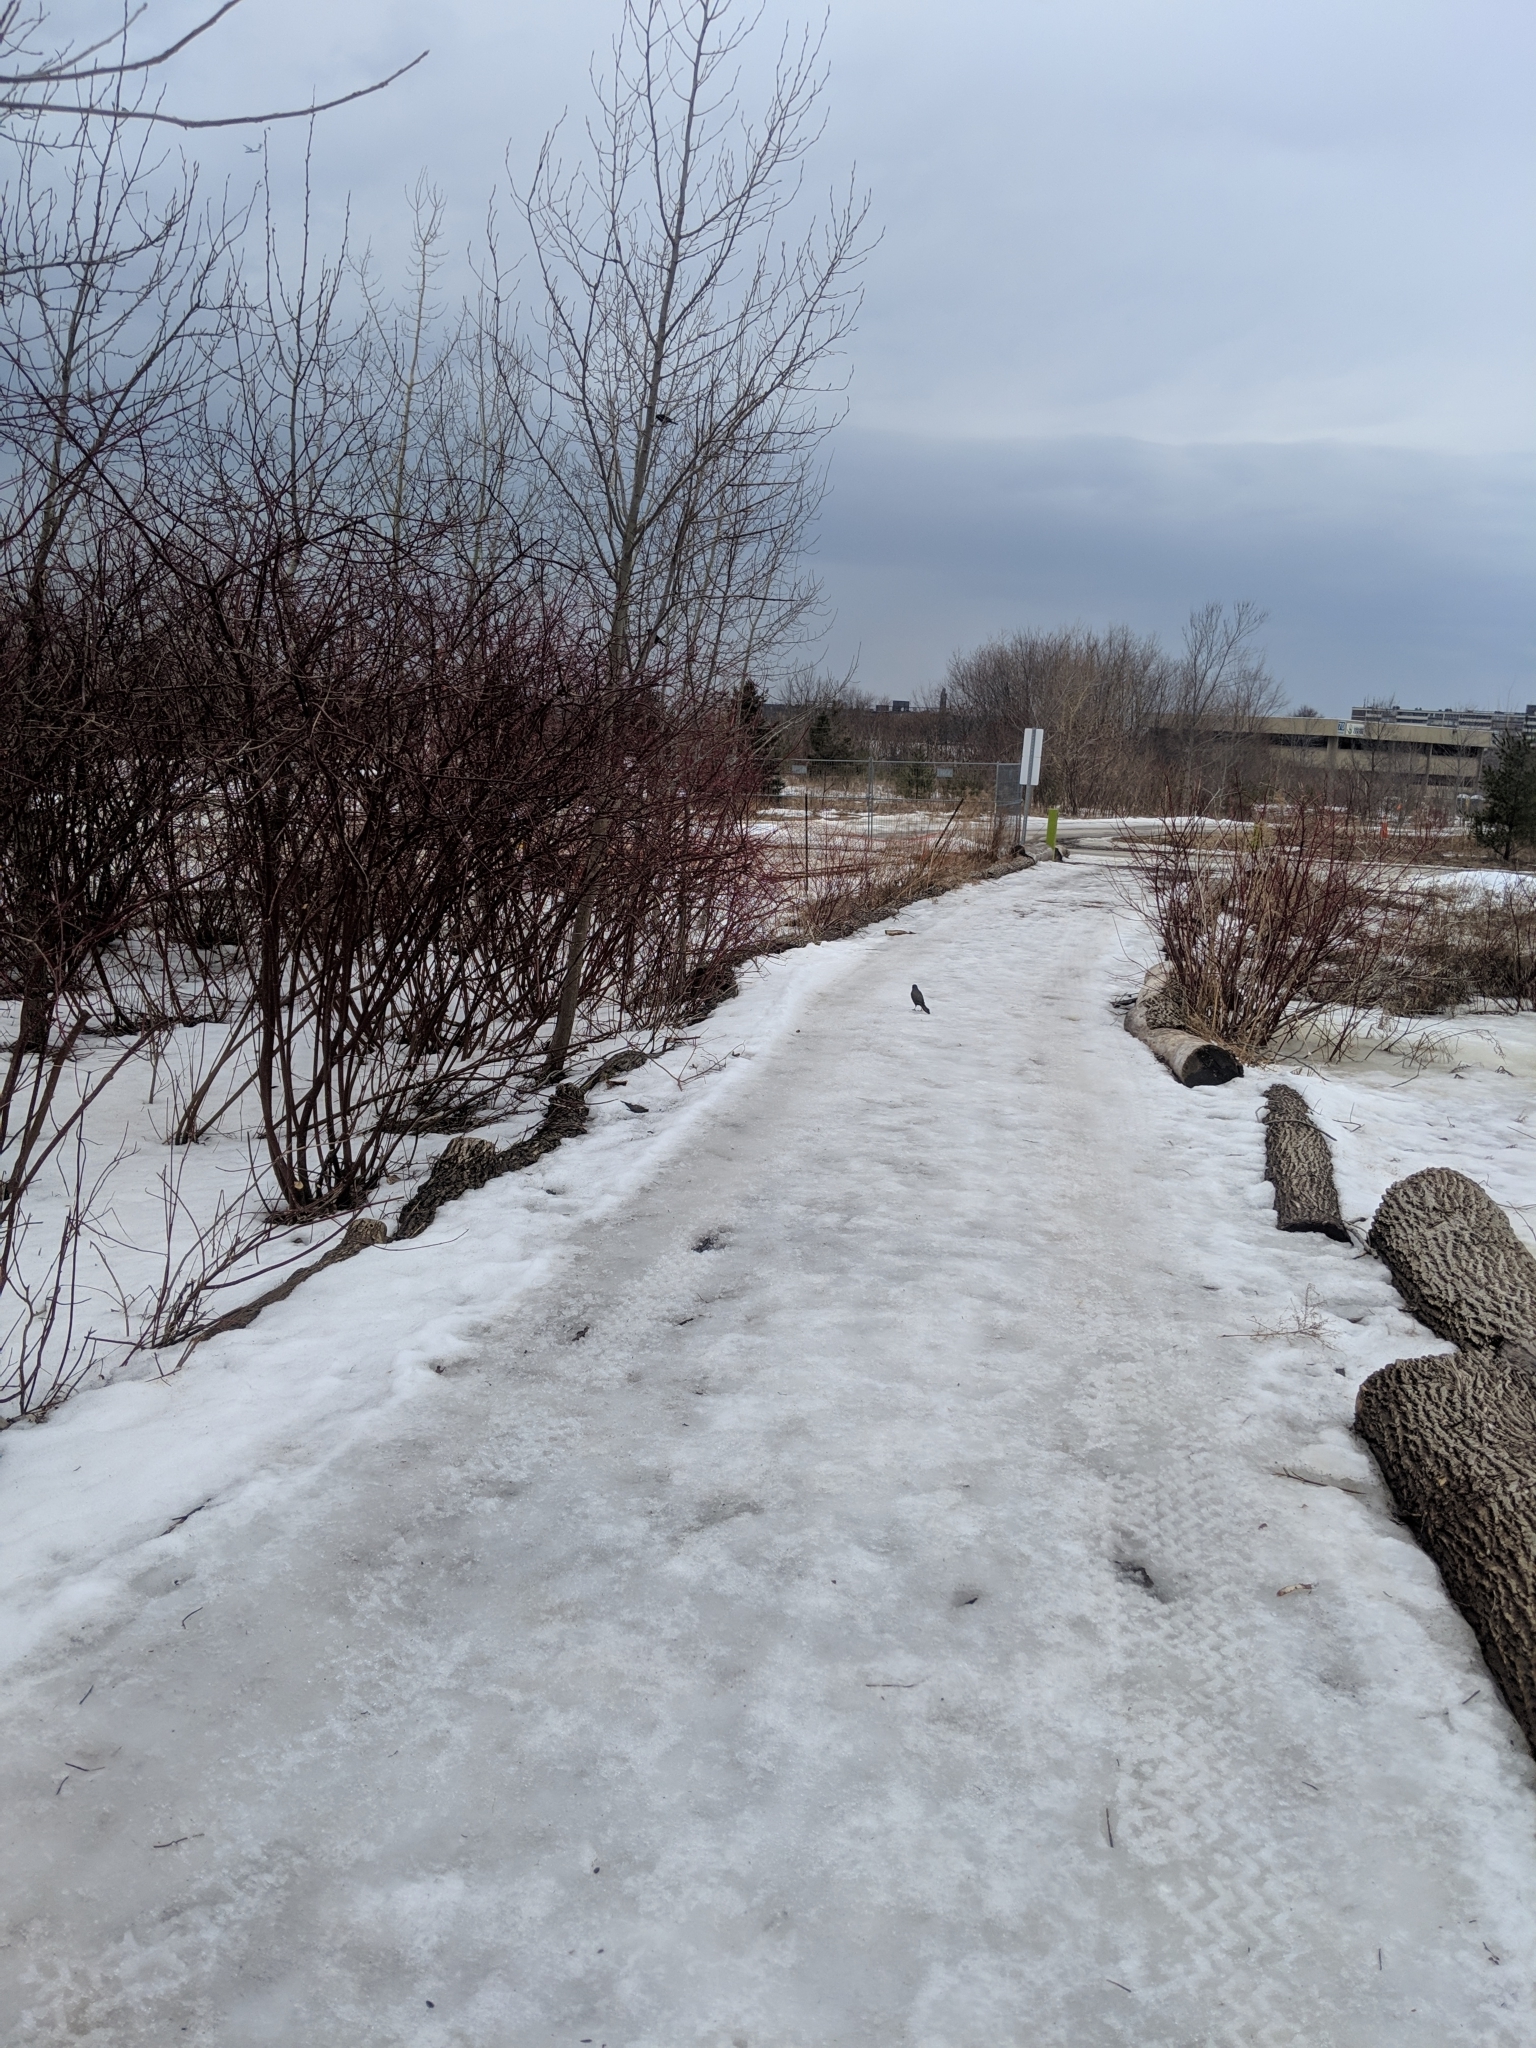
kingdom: Animalia
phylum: Chordata
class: Aves
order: Passeriformes
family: Icteridae
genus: Quiscalus
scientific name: Quiscalus quiscula
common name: Common grackle
